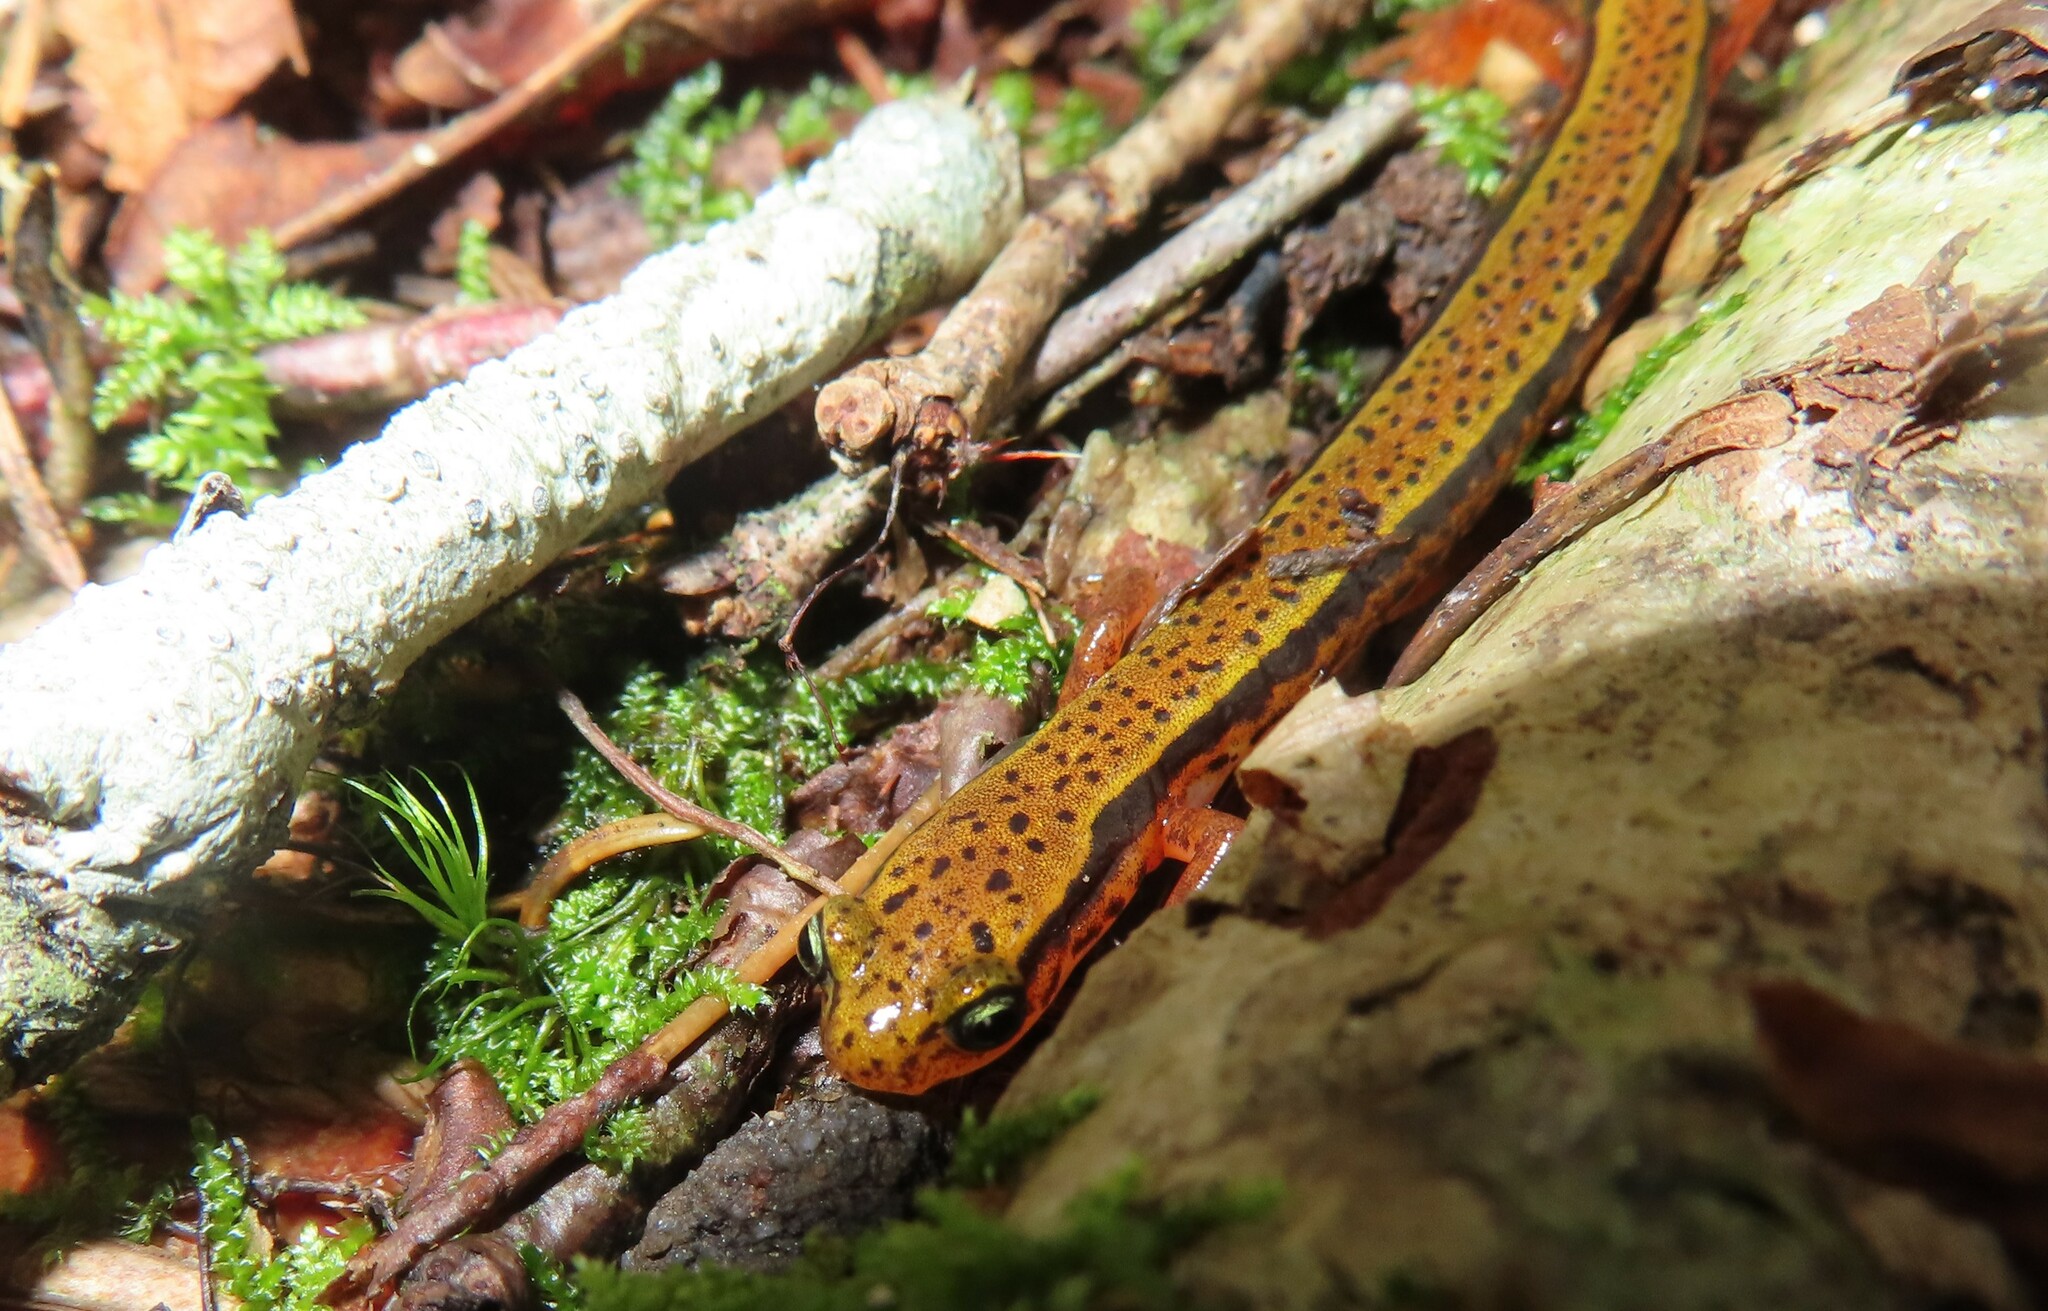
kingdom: Animalia
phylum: Chordata
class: Amphibia
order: Caudata
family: Plethodontidae
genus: Eurycea
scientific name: Eurycea wilderae
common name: Blue ridge two-lined salamander
